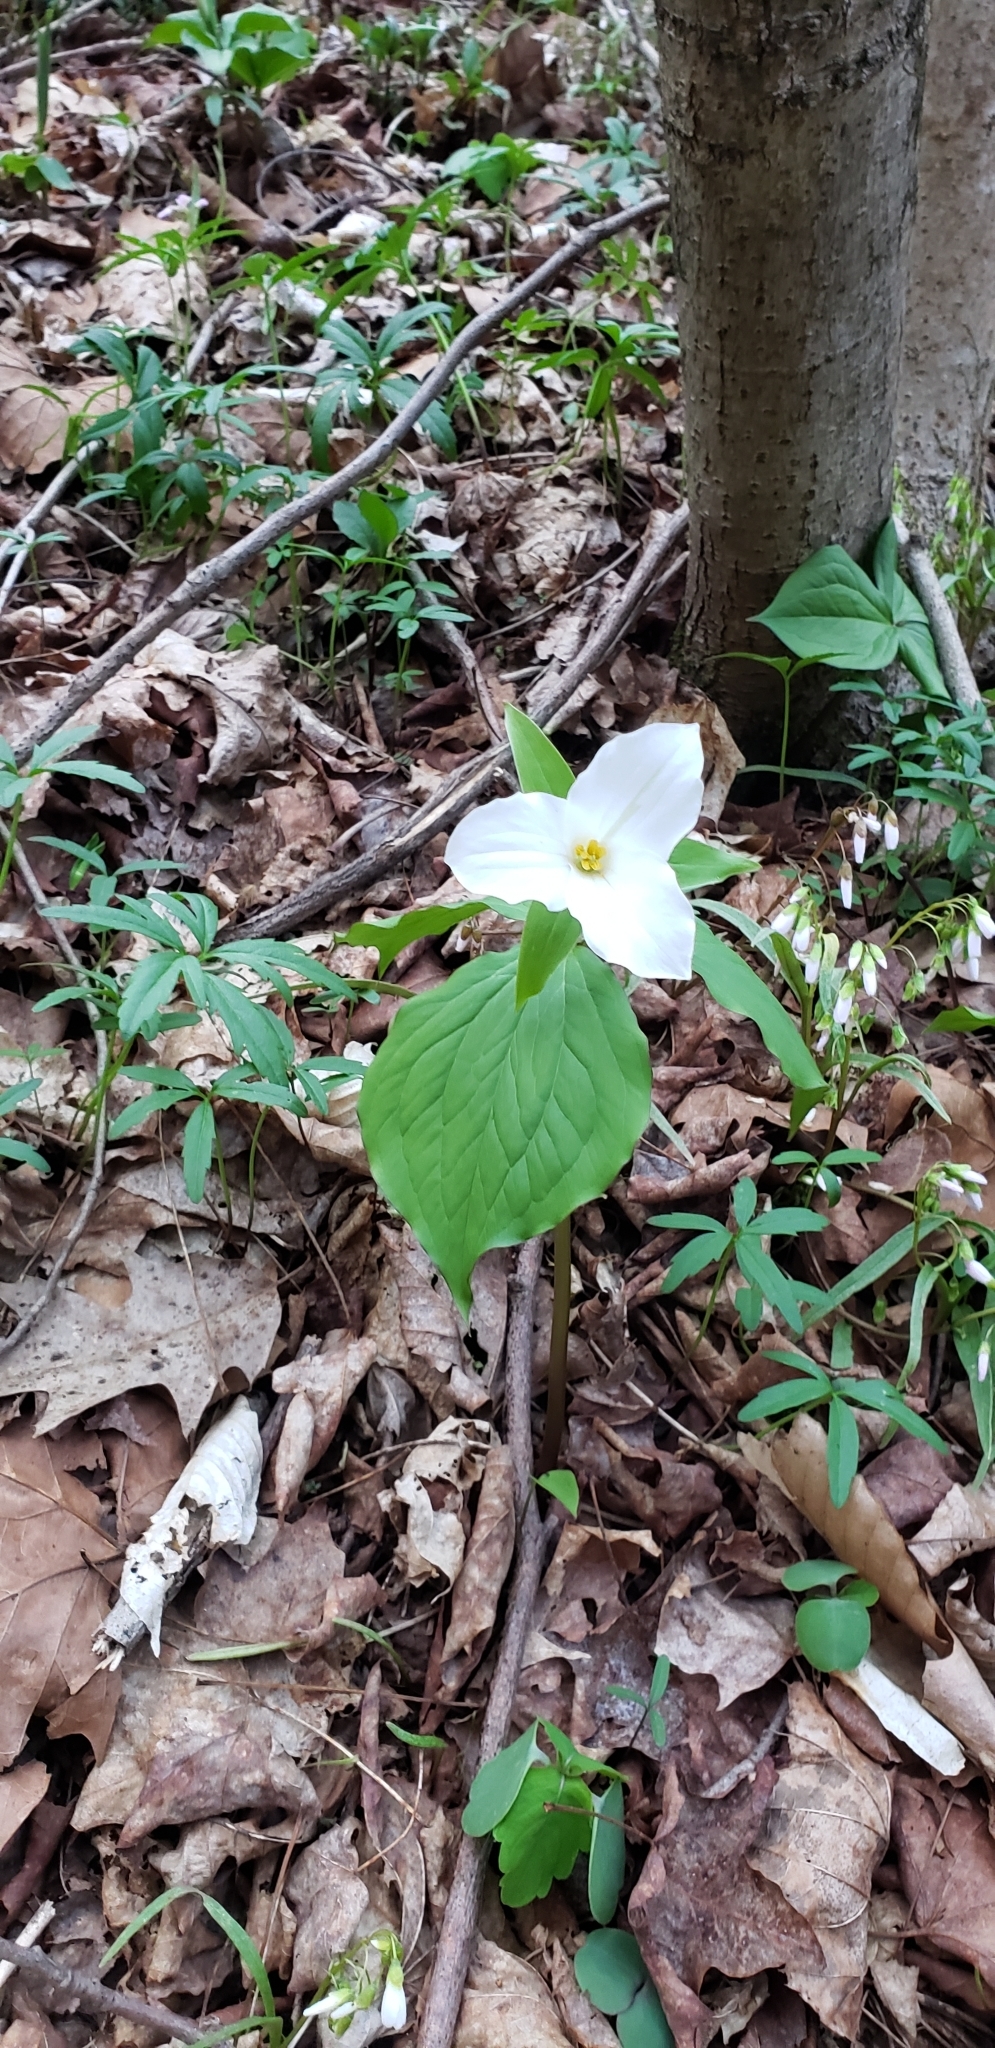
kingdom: Plantae
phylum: Tracheophyta
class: Liliopsida
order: Liliales
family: Melanthiaceae
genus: Trillium
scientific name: Trillium grandiflorum
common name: Great white trillium
